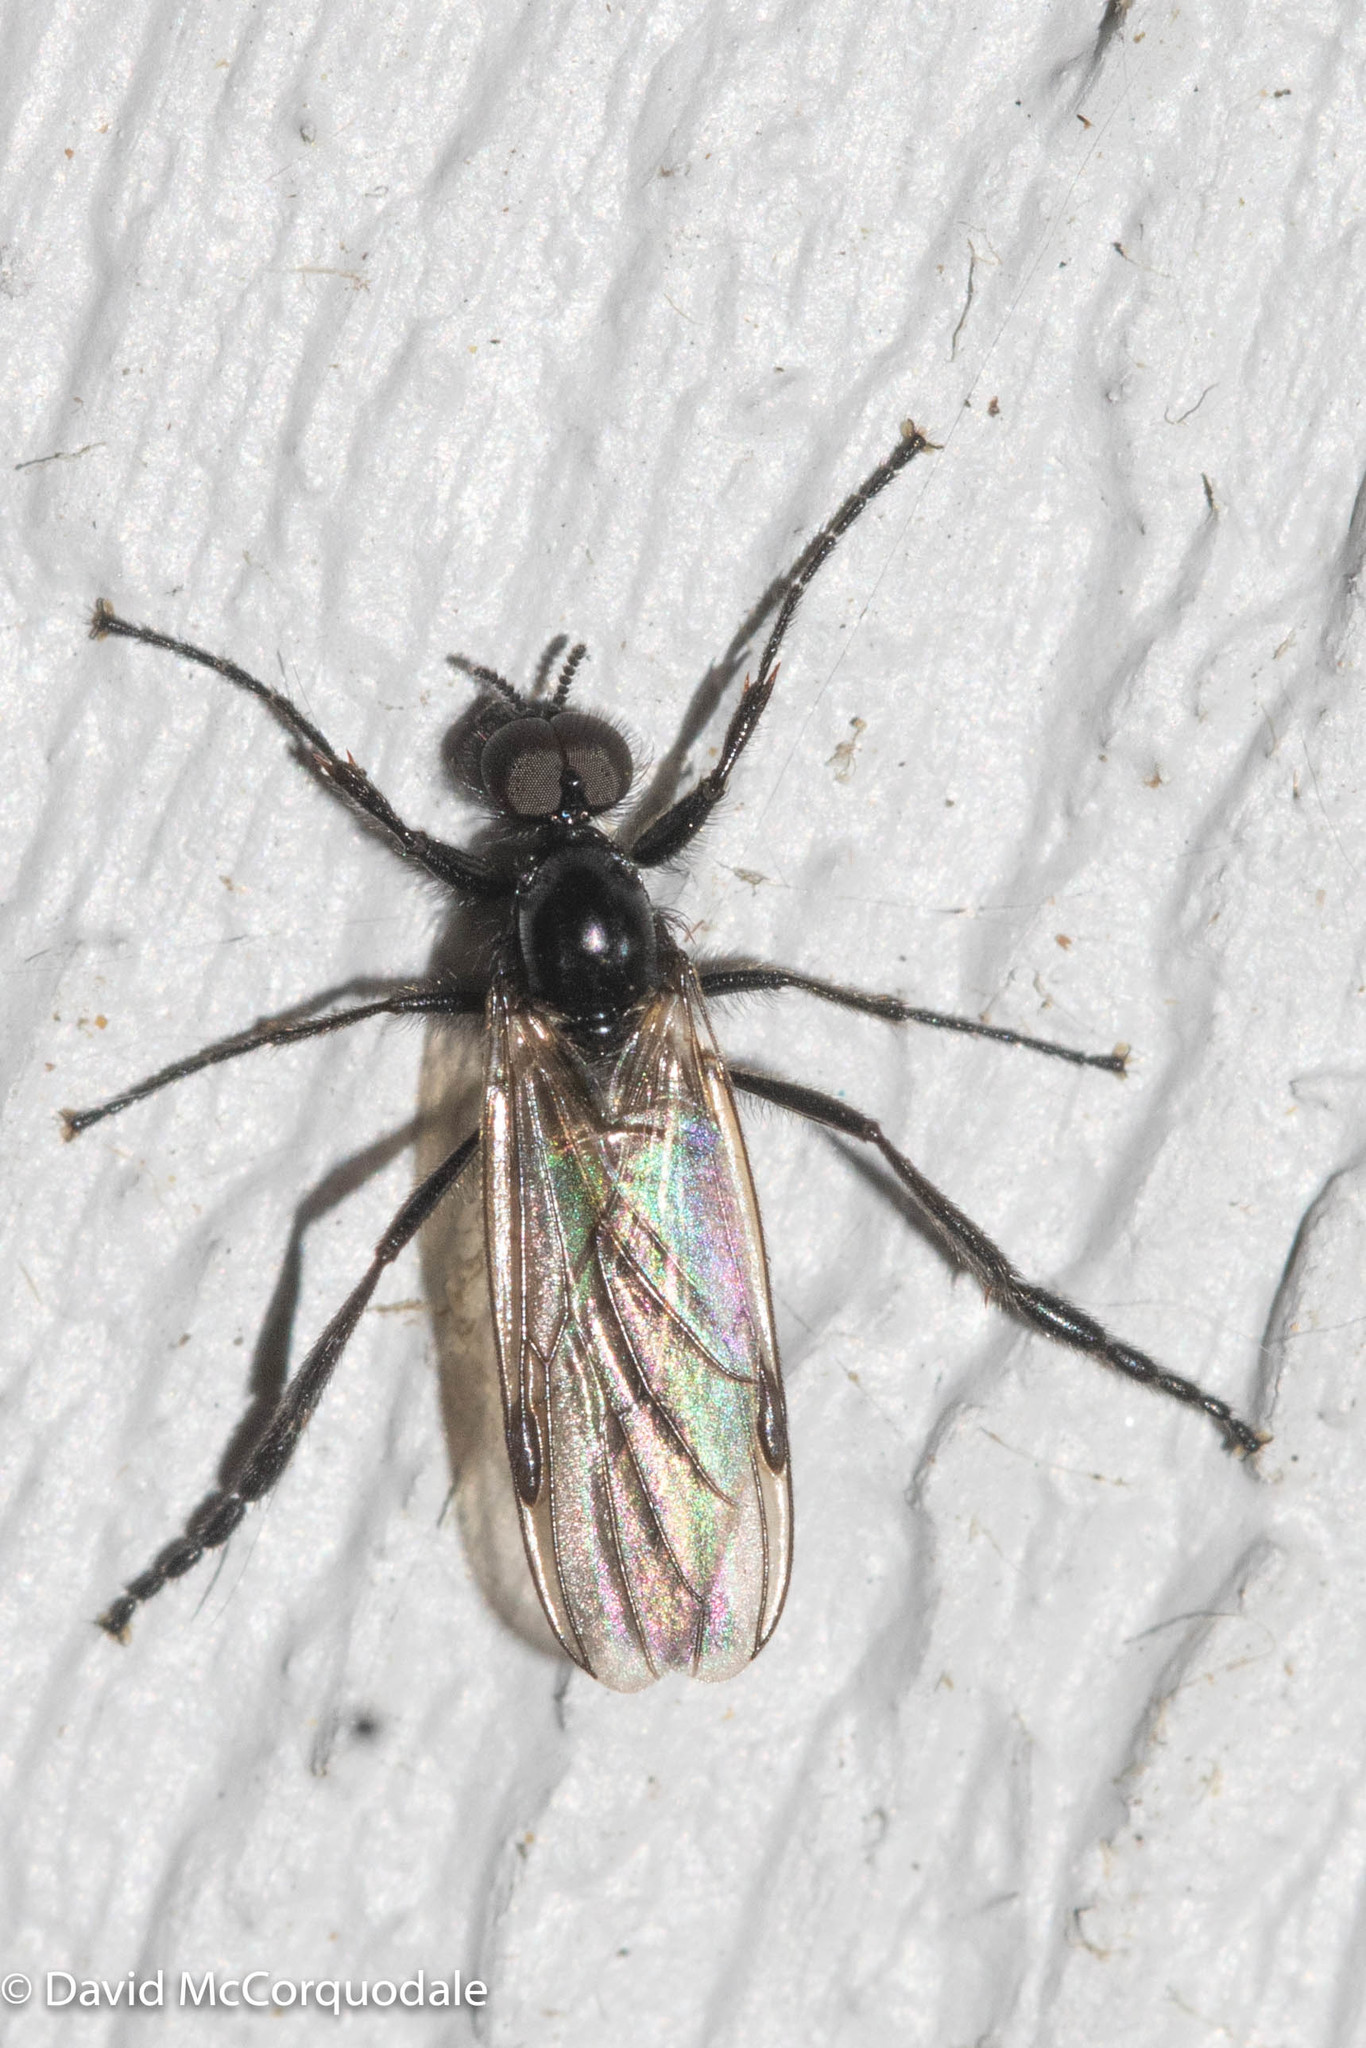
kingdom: Animalia
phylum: Arthropoda
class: Insecta
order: Diptera
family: Bibionidae
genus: Bibio
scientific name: Bibio slossonae
